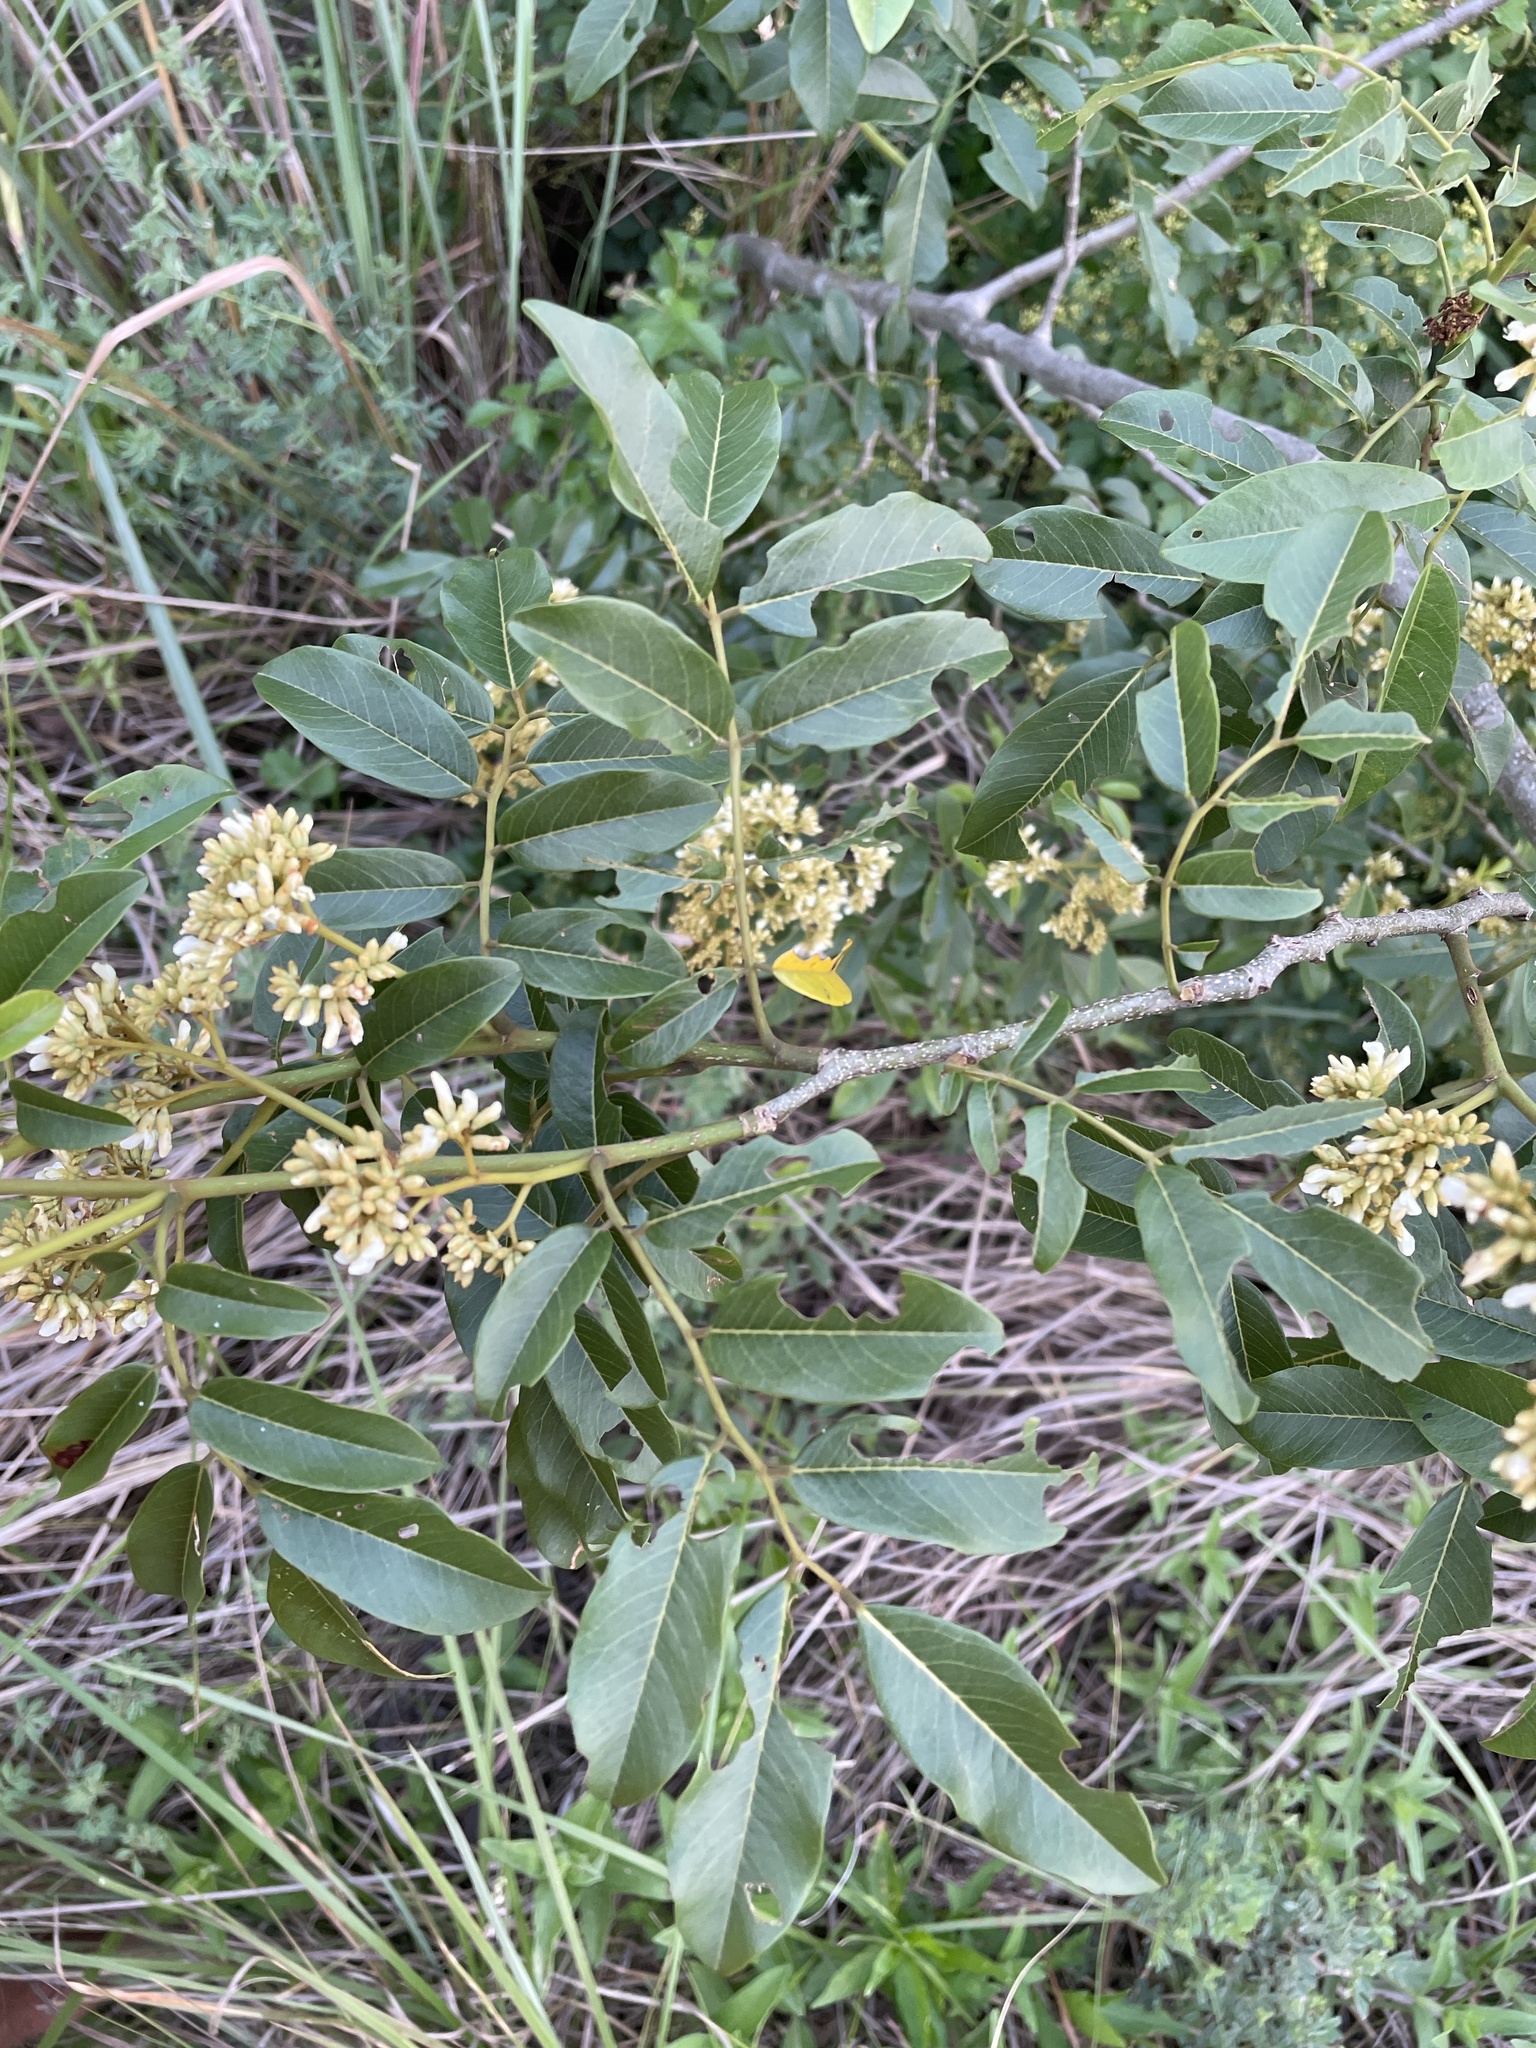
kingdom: Plantae
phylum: Tracheophyta
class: Magnoliopsida
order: Fabales
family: Fabaceae
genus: Dalbergia
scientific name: Dalbergia obovata
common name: Climbing flat-bean
